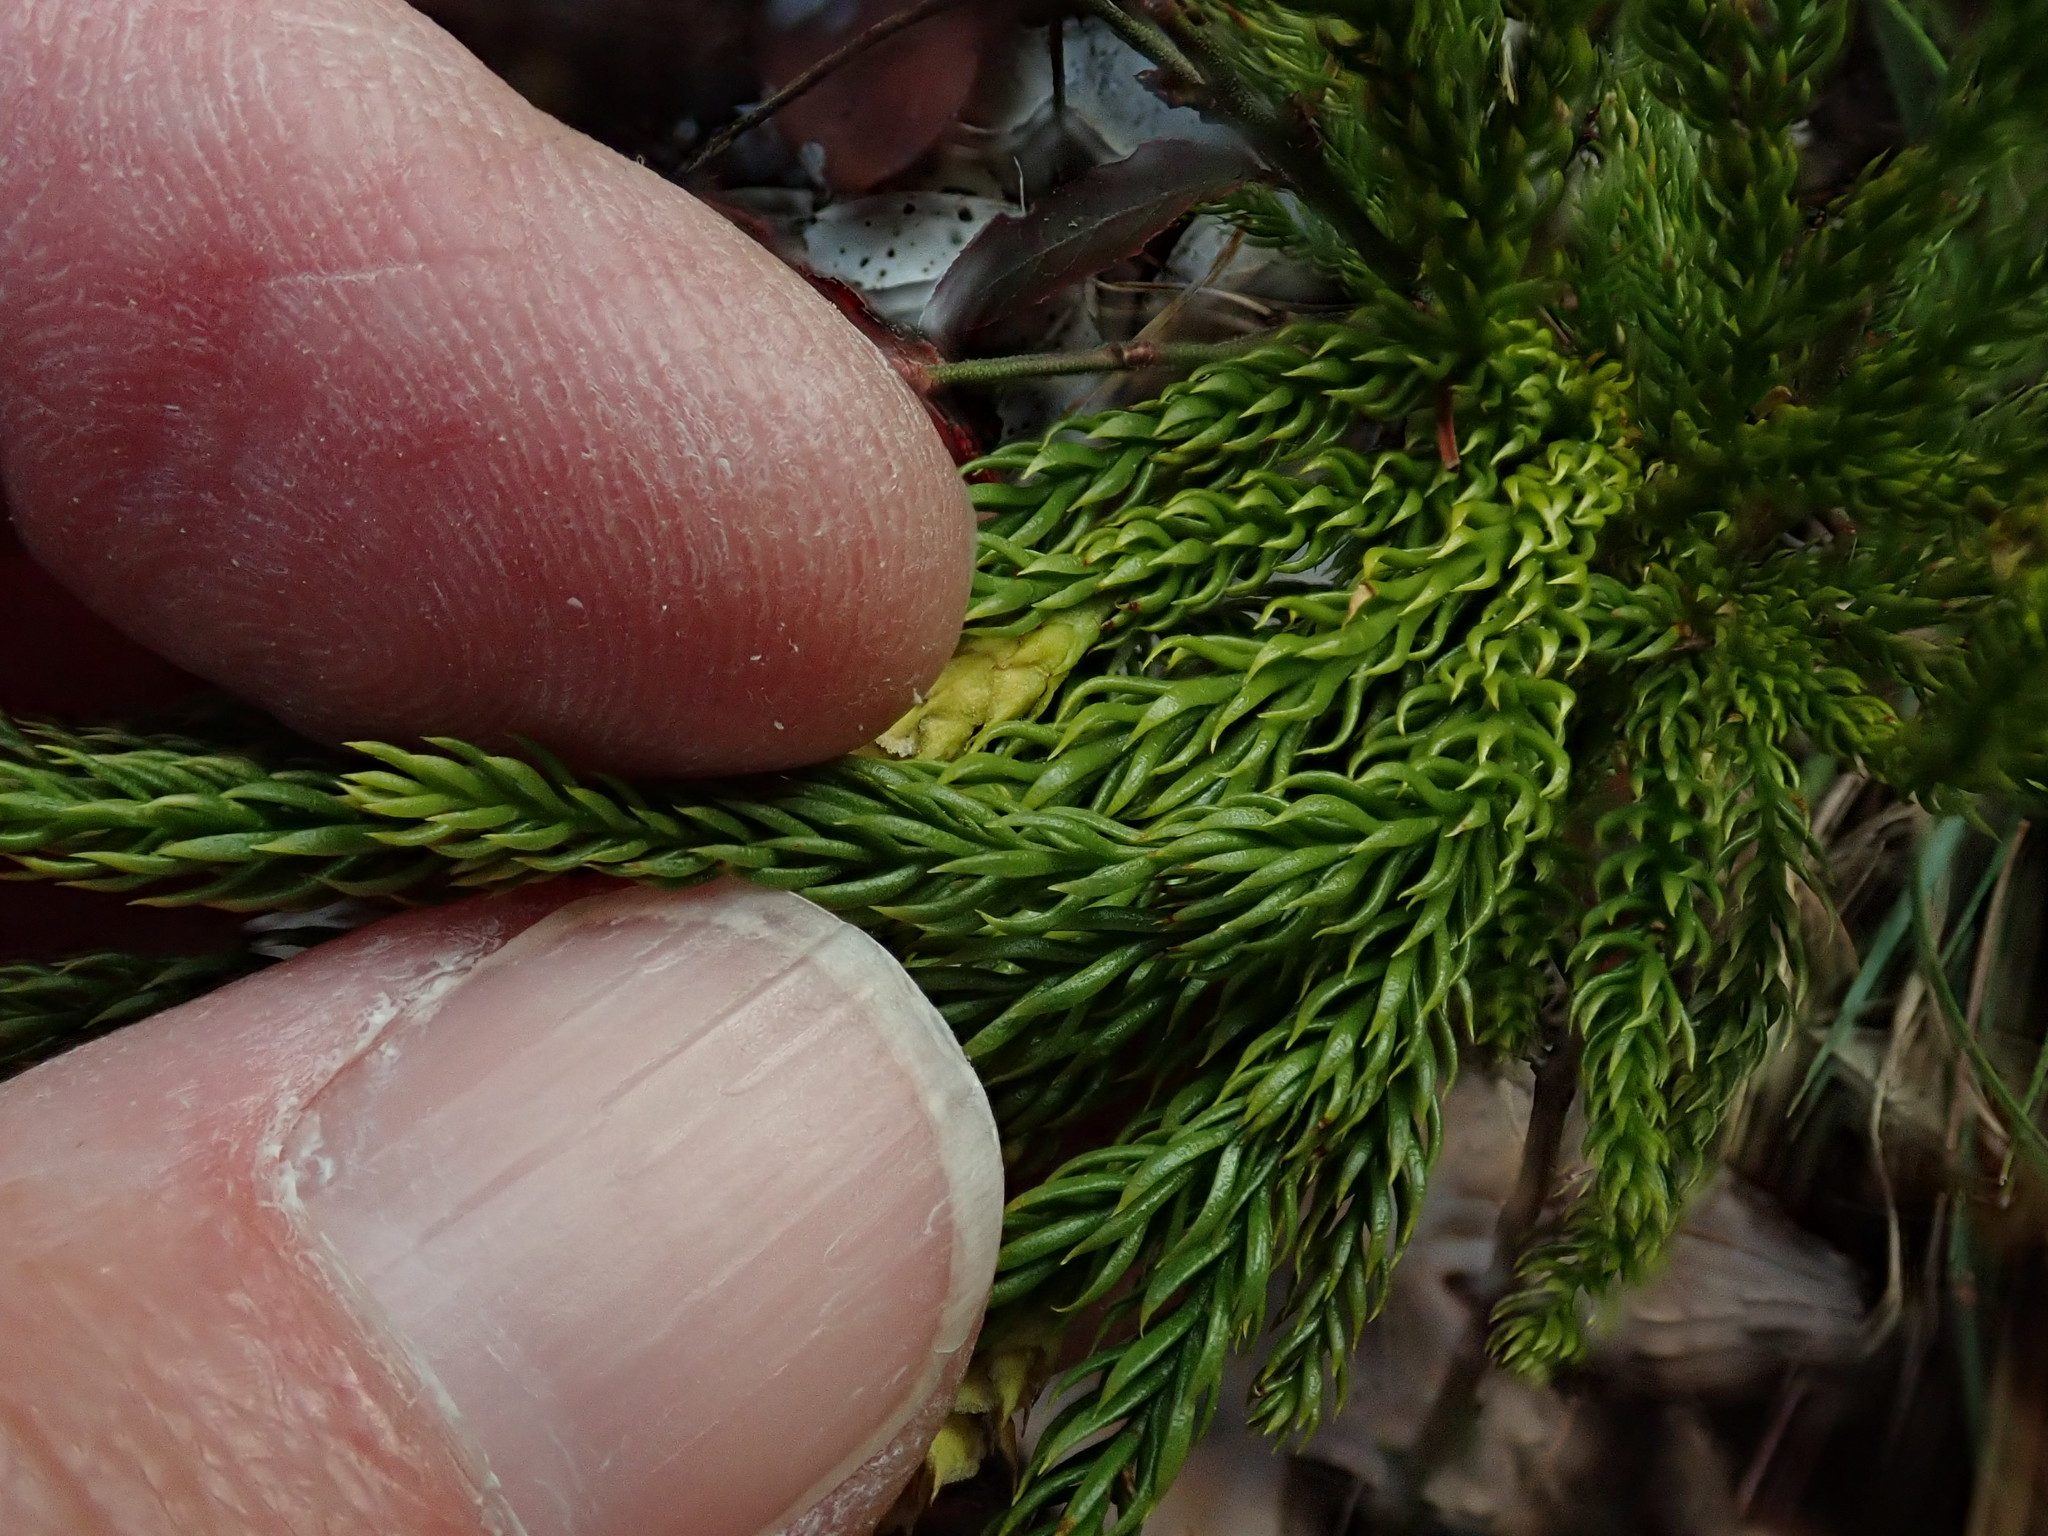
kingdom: Plantae
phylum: Tracheophyta
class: Lycopodiopsida
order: Lycopodiales
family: Lycopodiaceae
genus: Dendrolycopodium
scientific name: Dendrolycopodium hickeyi
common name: Hickey's clubmoss
